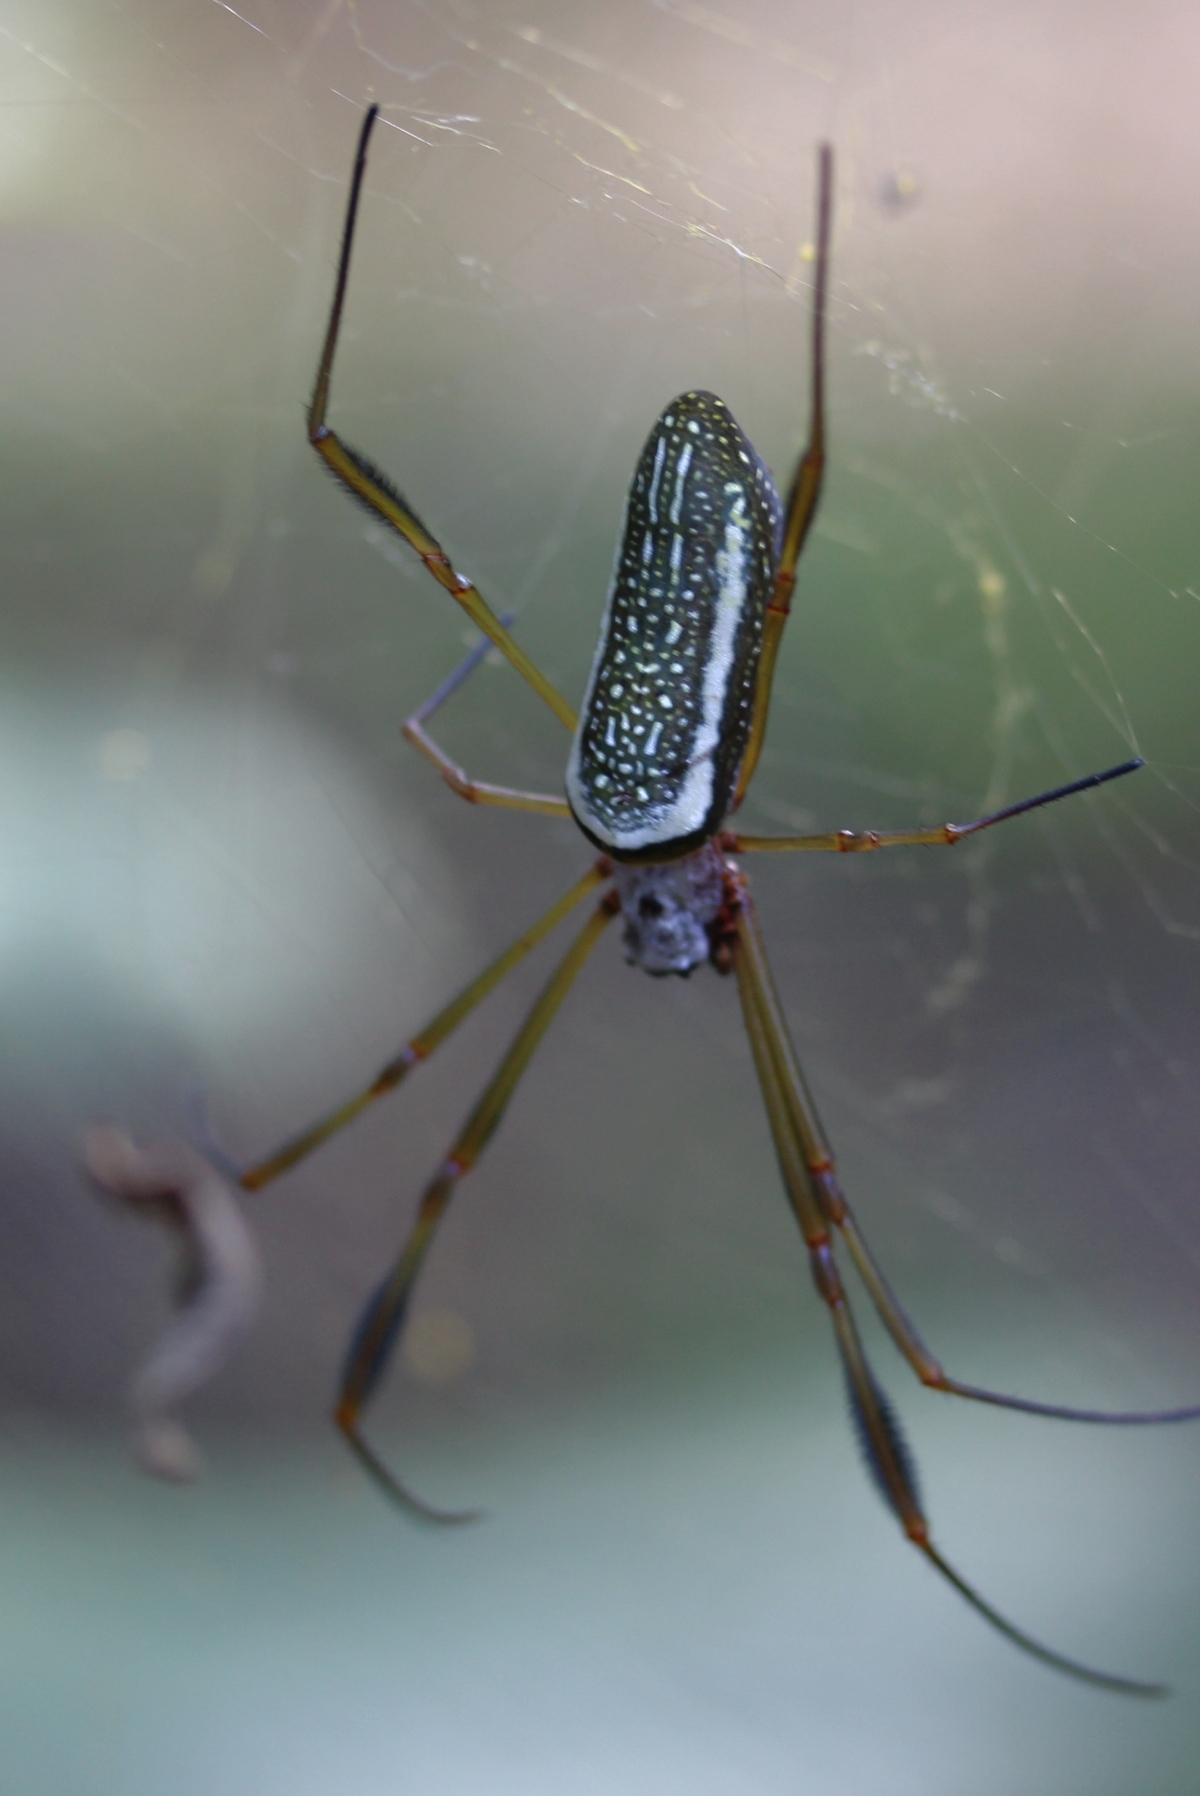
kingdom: Animalia
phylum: Arthropoda
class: Arachnida
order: Araneae
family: Araneidae
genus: Trichonephila
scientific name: Trichonephila clavipes
